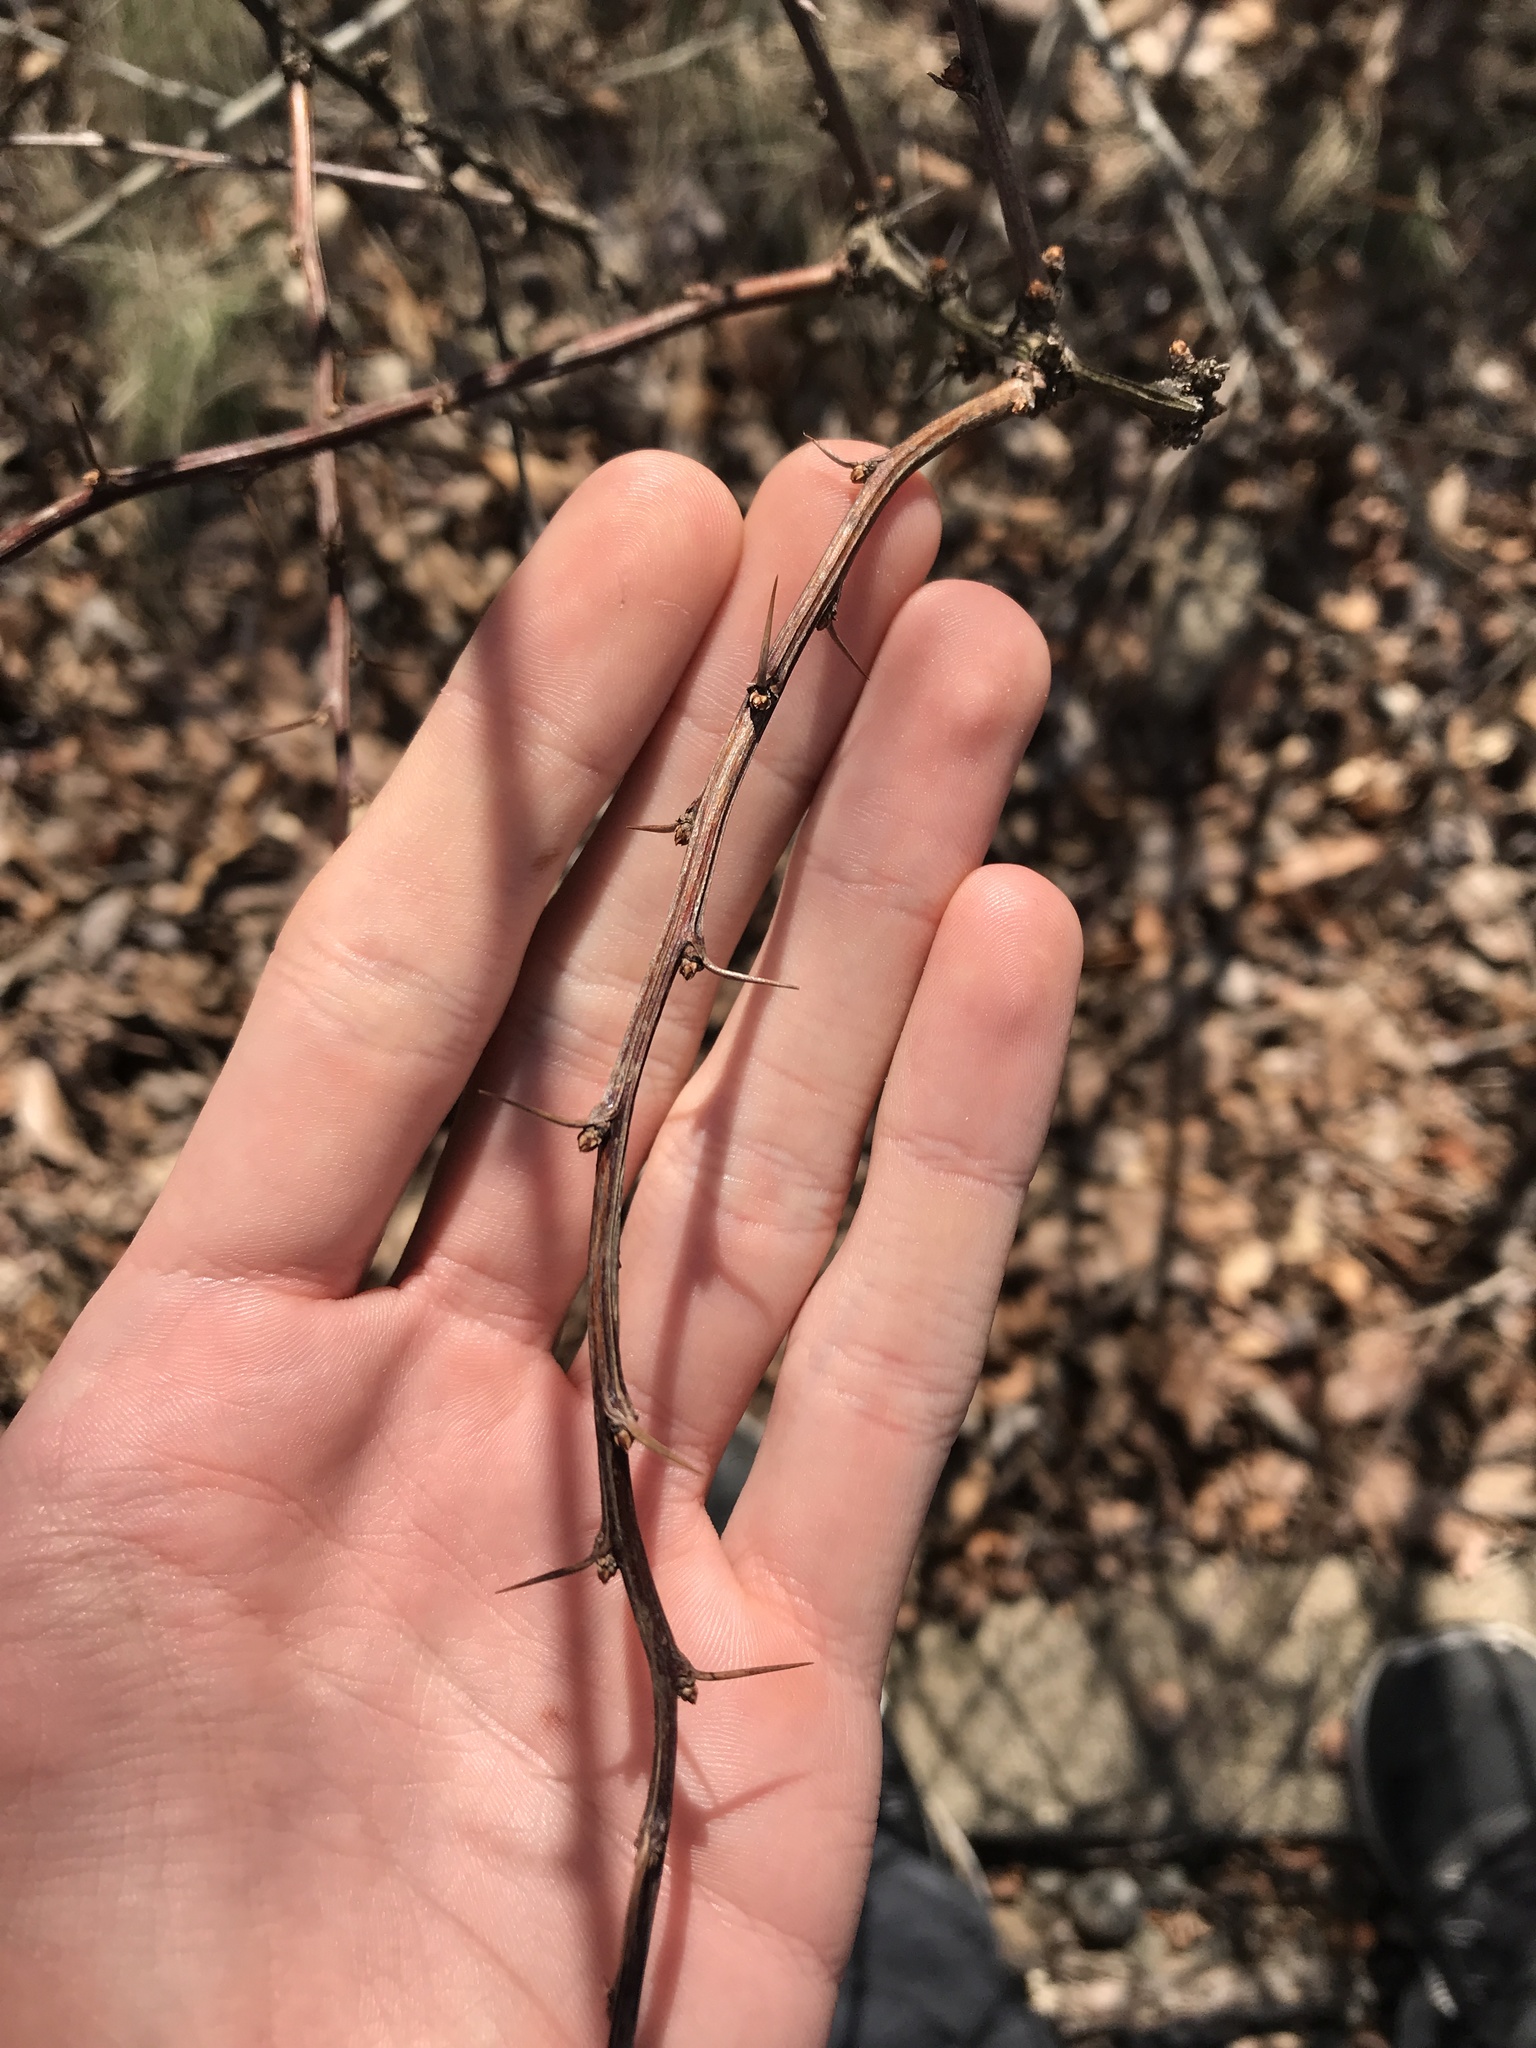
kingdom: Plantae
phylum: Tracheophyta
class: Magnoliopsida
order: Ranunculales
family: Berberidaceae
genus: Berberis
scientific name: Berberis thunbergii
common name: Japanese barberry
